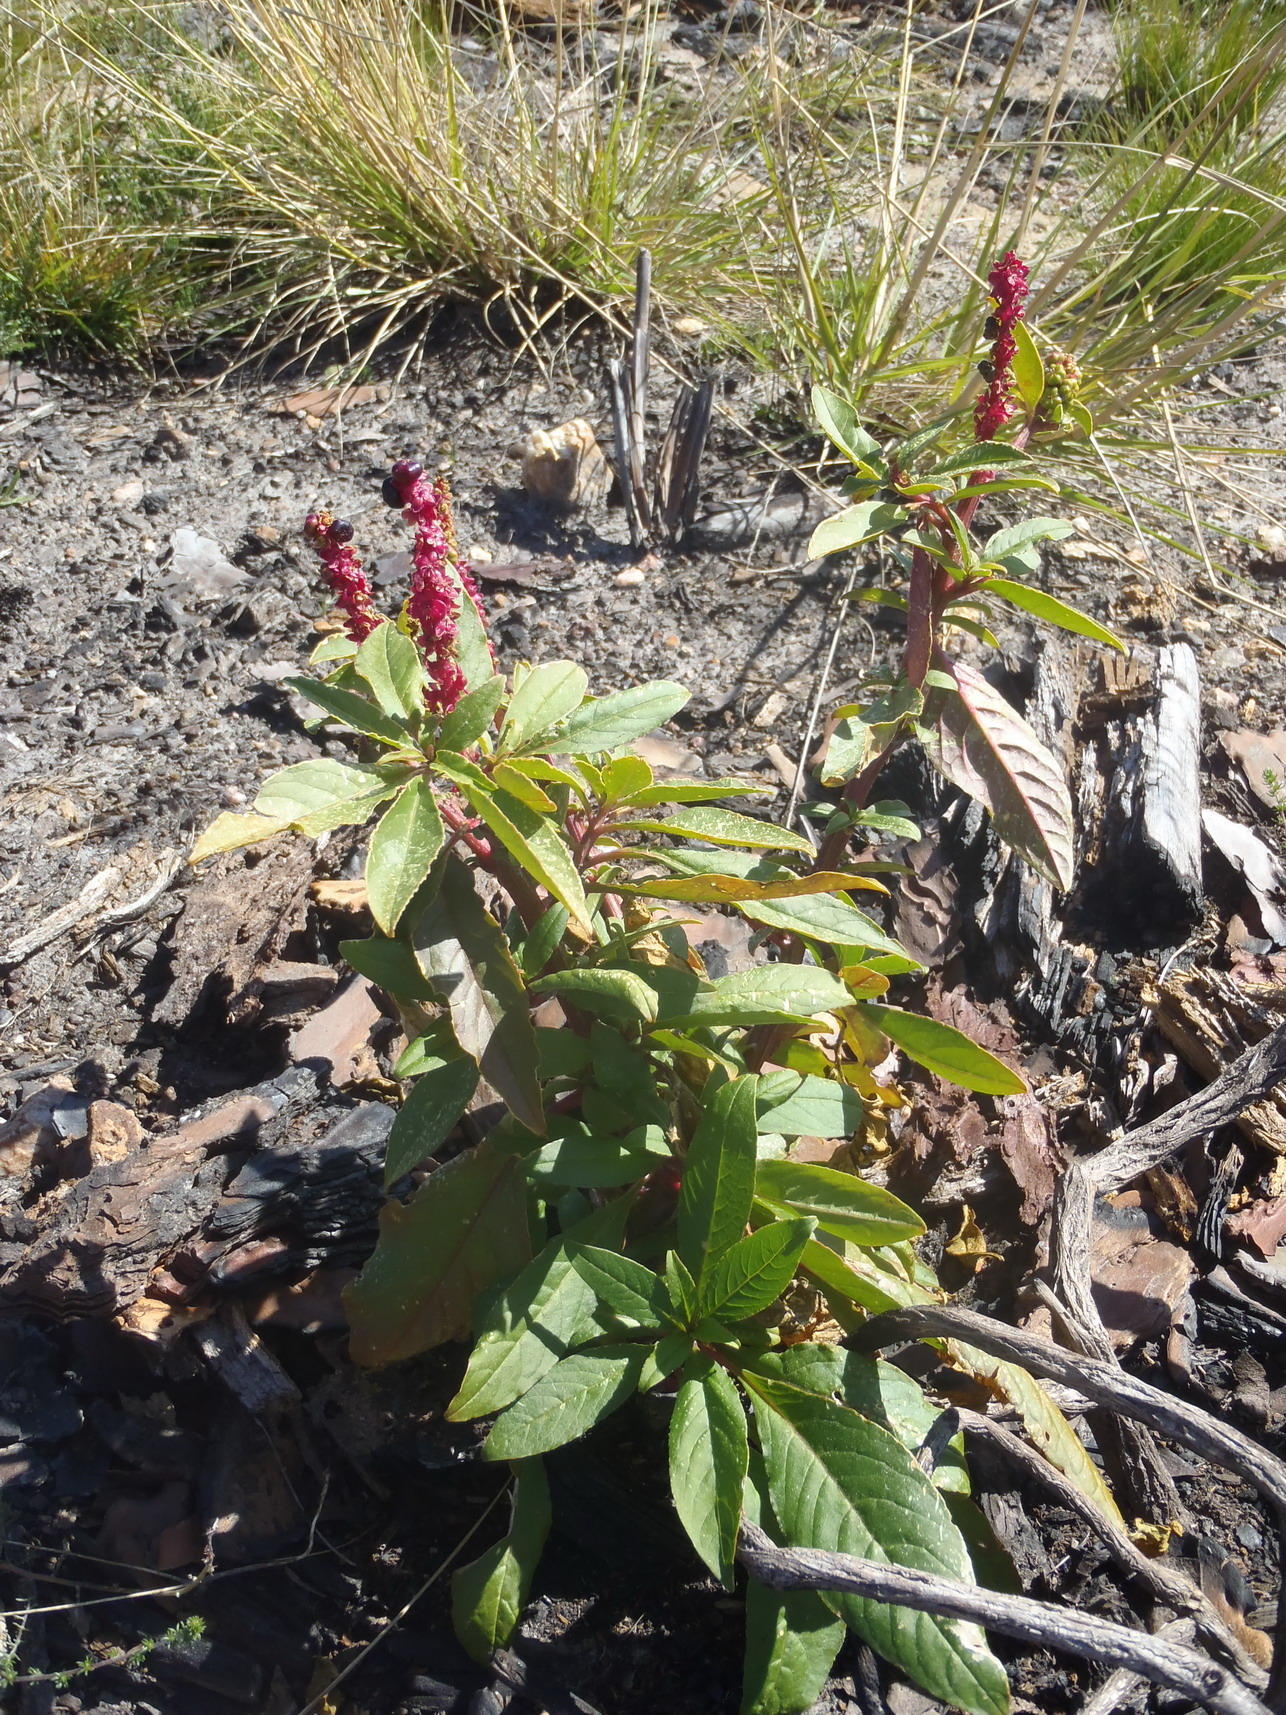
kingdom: Plantae
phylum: Tracheophyta
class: Magnoliopsida
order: Caryophyllales
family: Phytolaccaceae
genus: Phytolacca
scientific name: Phytolacca icosandra
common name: Button pokeweed
